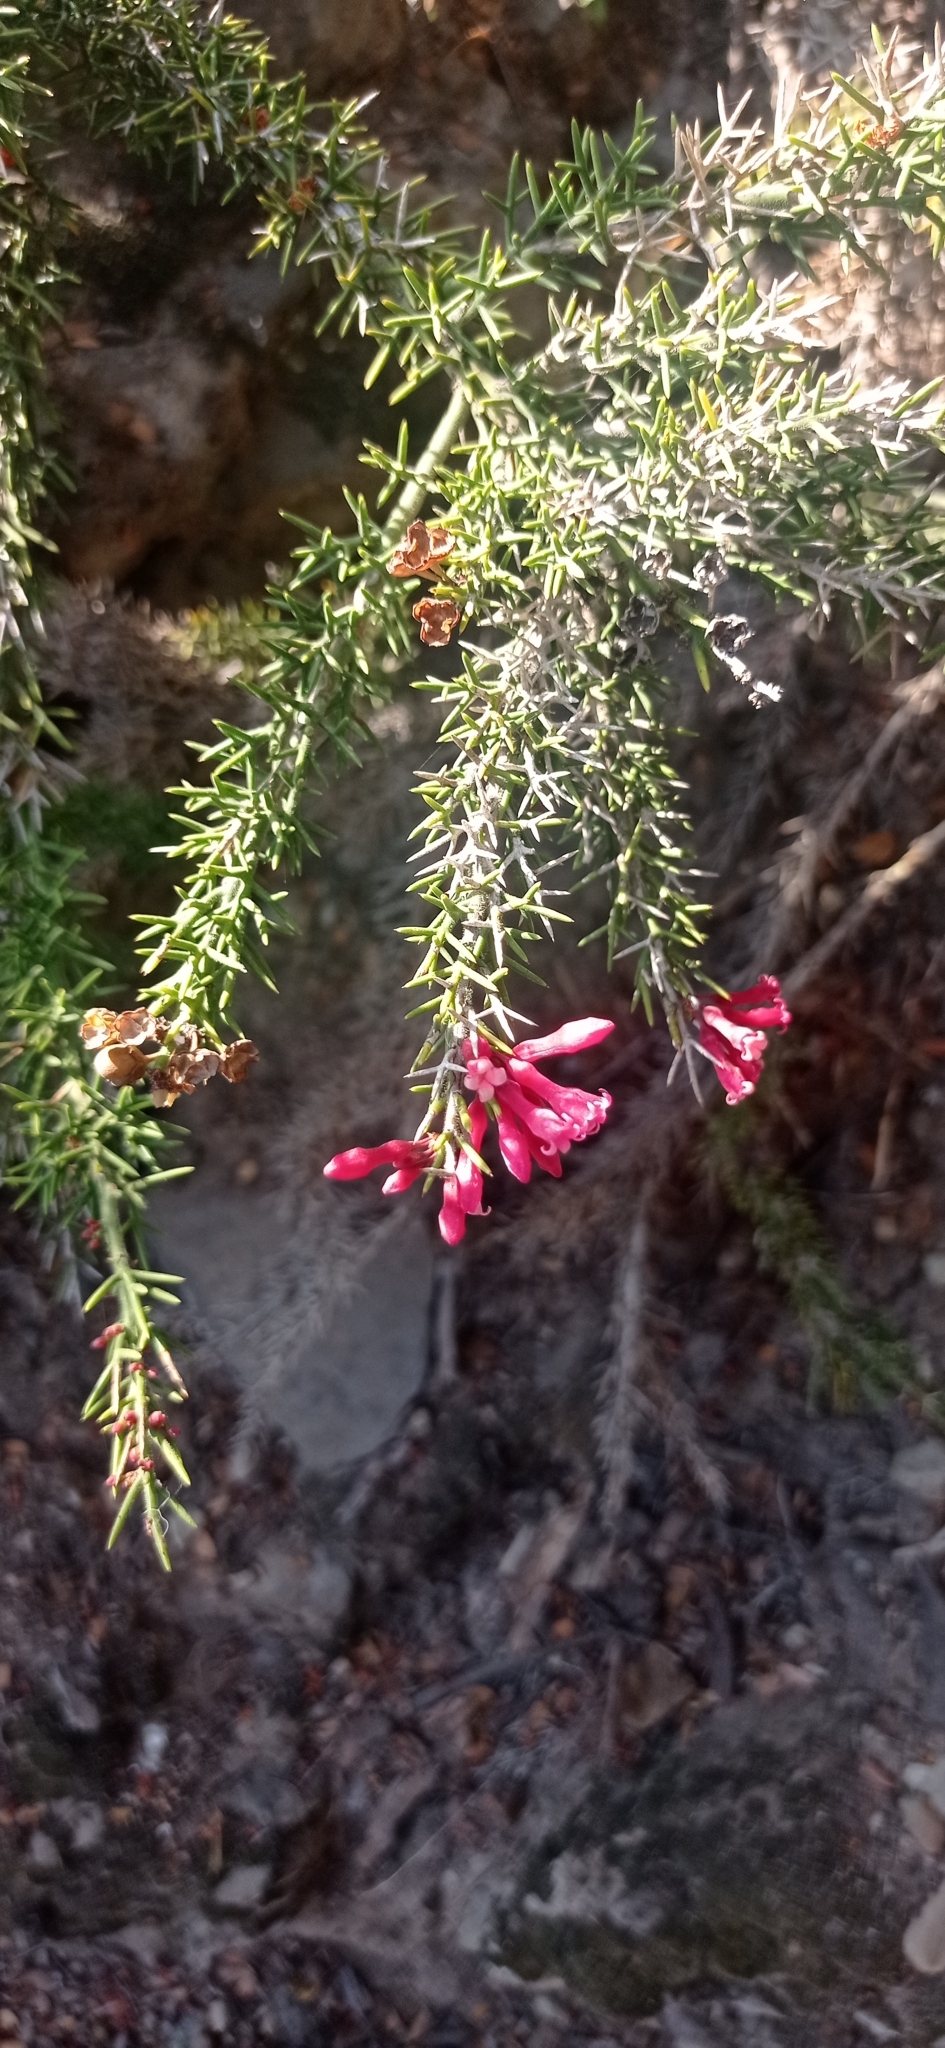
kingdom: Plantae
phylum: Tracheophyta
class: Magnoliopsida
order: Rosales
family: Rhamnaceae
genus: Colletia
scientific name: Colletia ulicina
